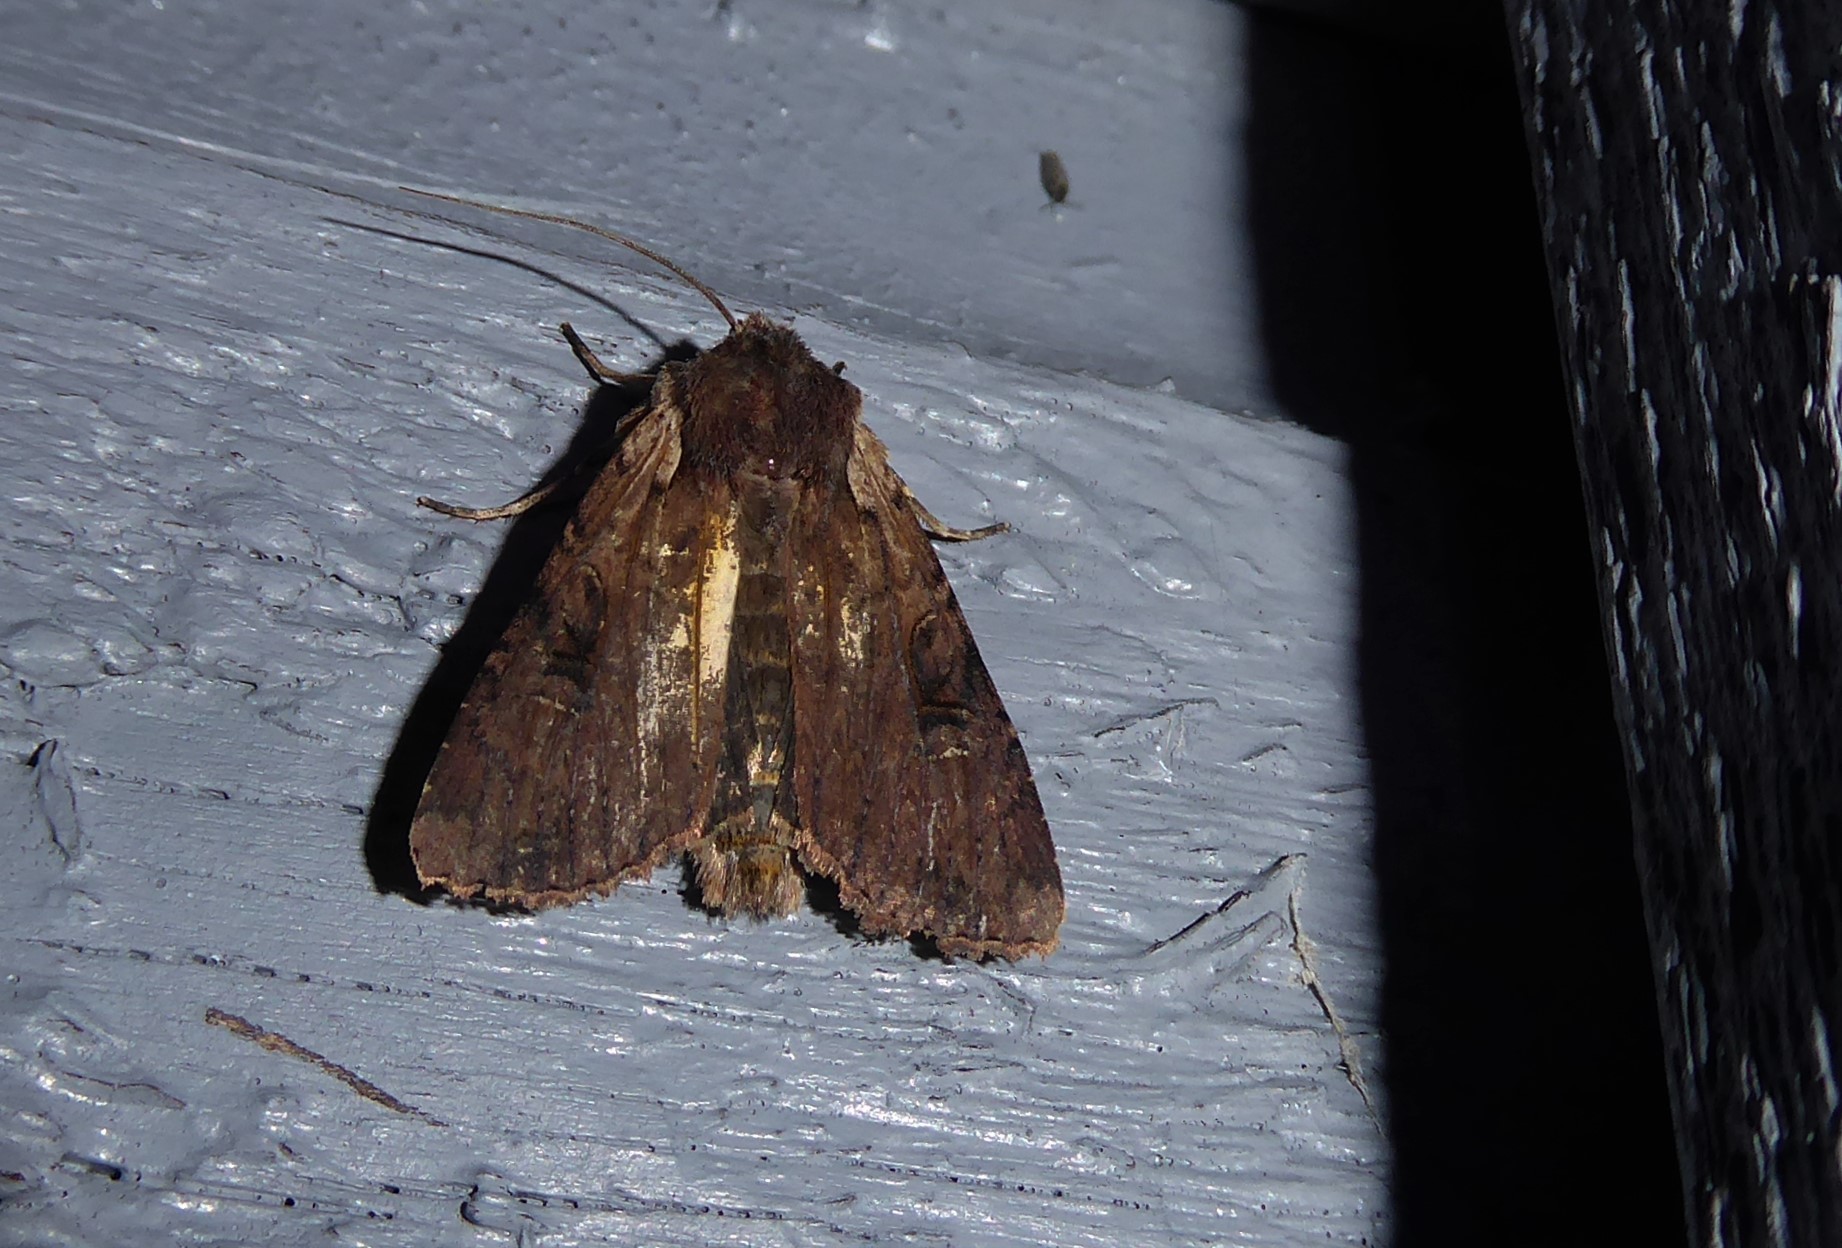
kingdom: Animalia
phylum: Arthropoda
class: Insecta
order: Lepidoptera
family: Noctuidae
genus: Ichneutica
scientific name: Ichneutica omoplaca
